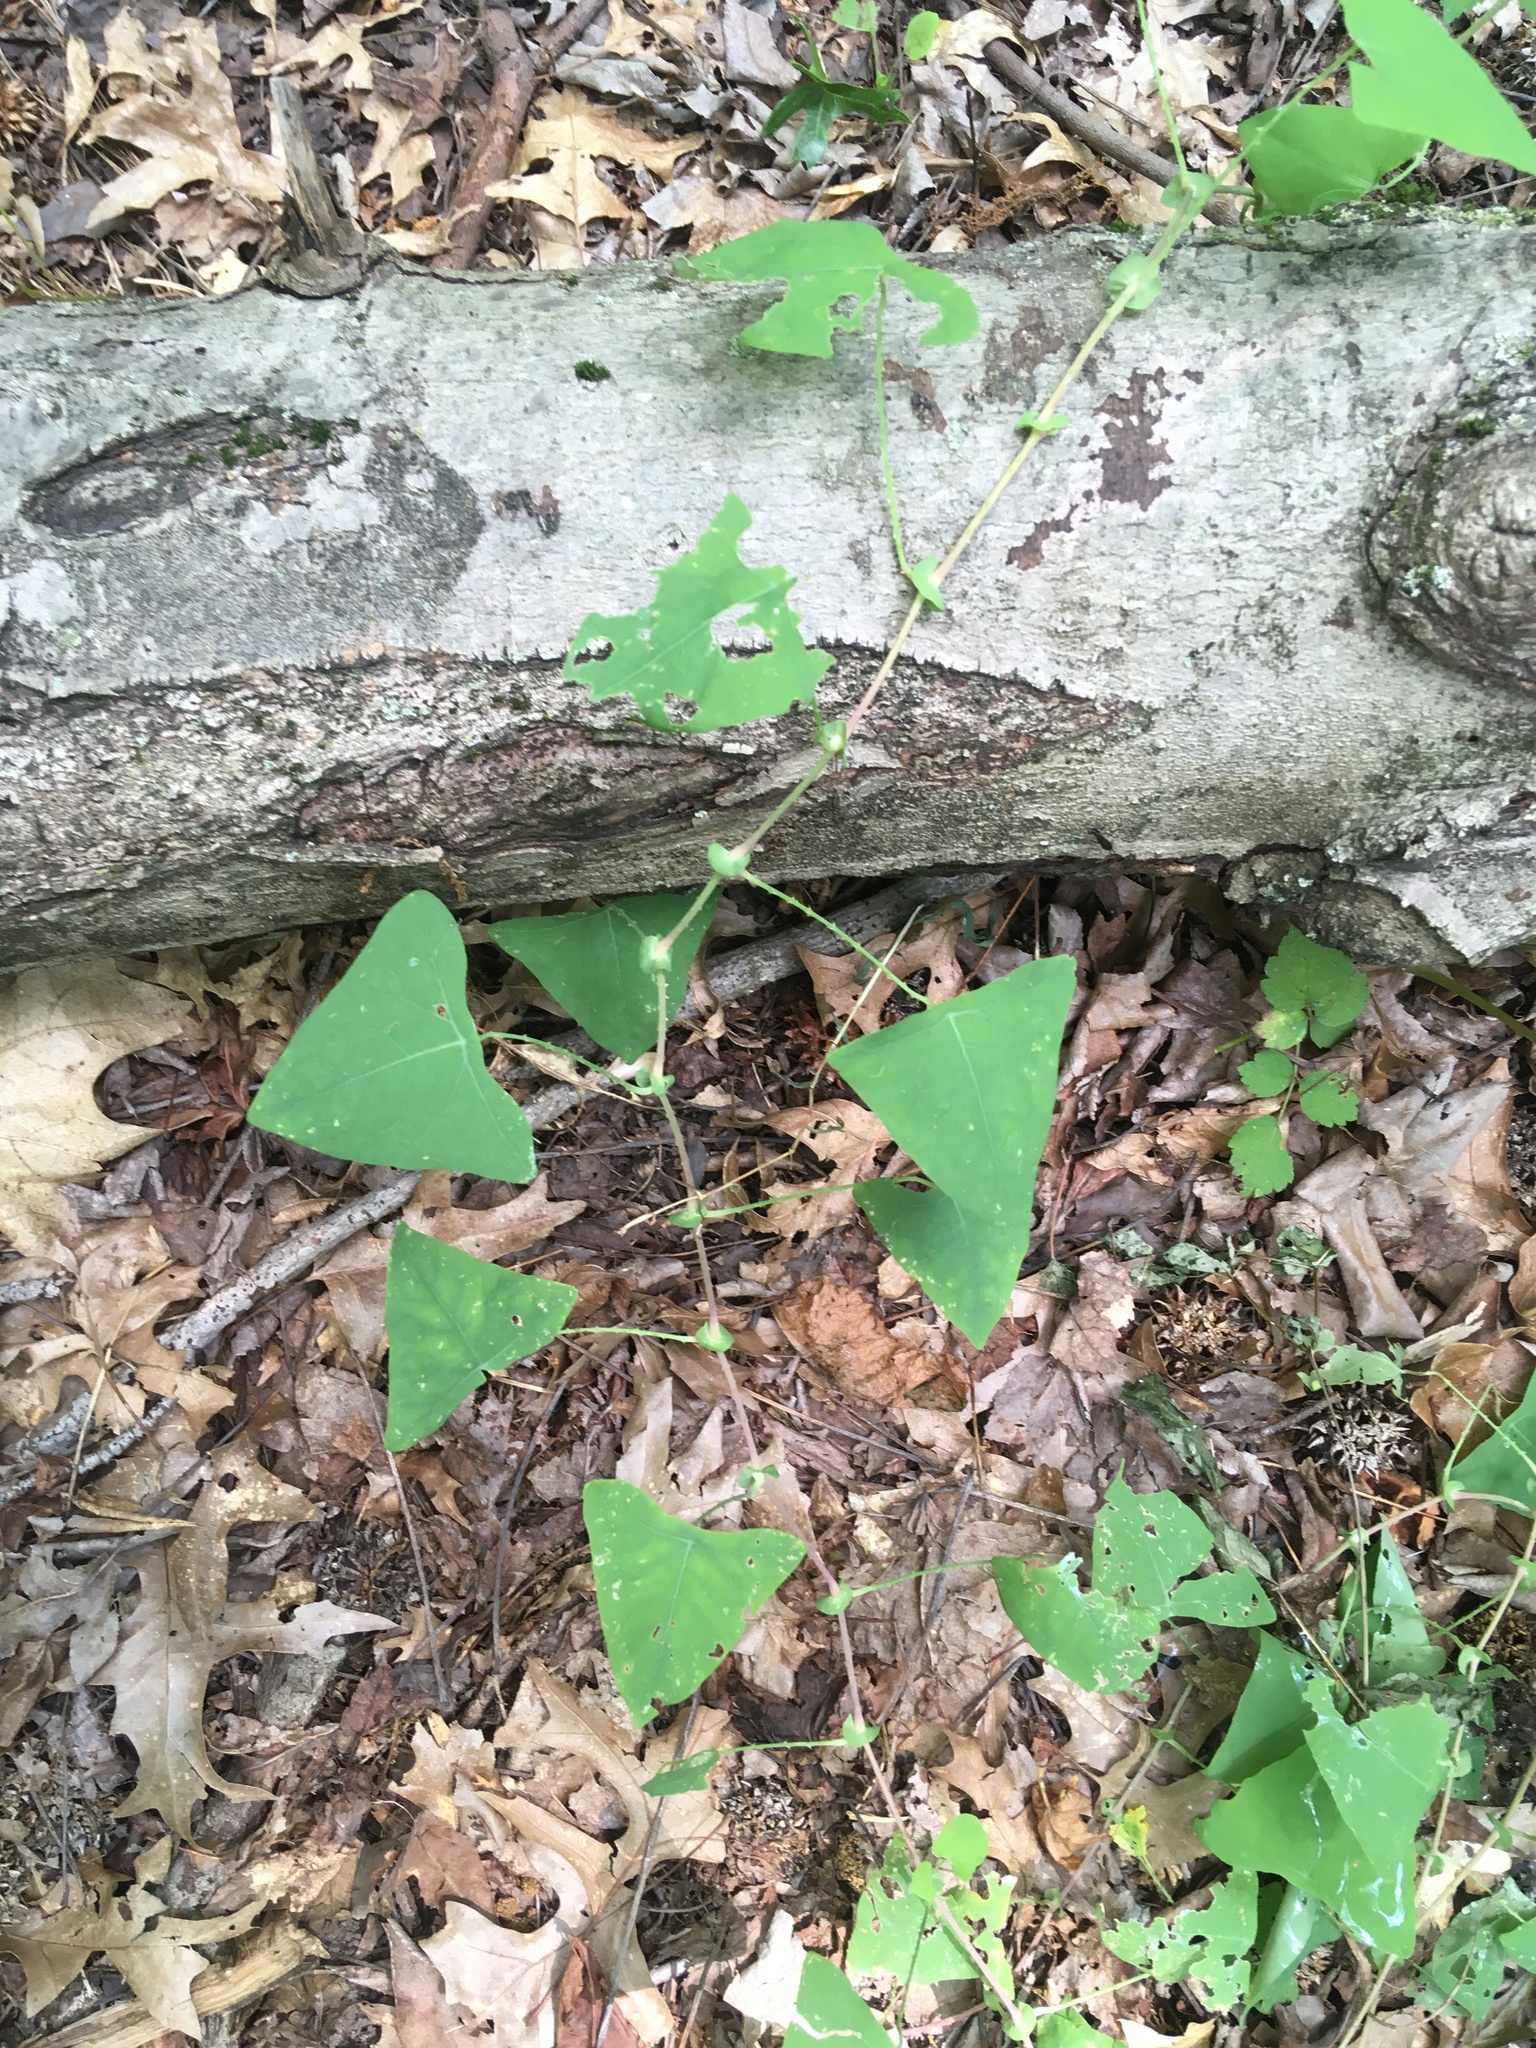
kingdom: Plantae
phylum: Tracheophyta
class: Magnoliopsida
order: Caryophyllales
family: Polygonaceae
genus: Persicaria
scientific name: Persicaria perfoliata
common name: Asiatic tearthumb
